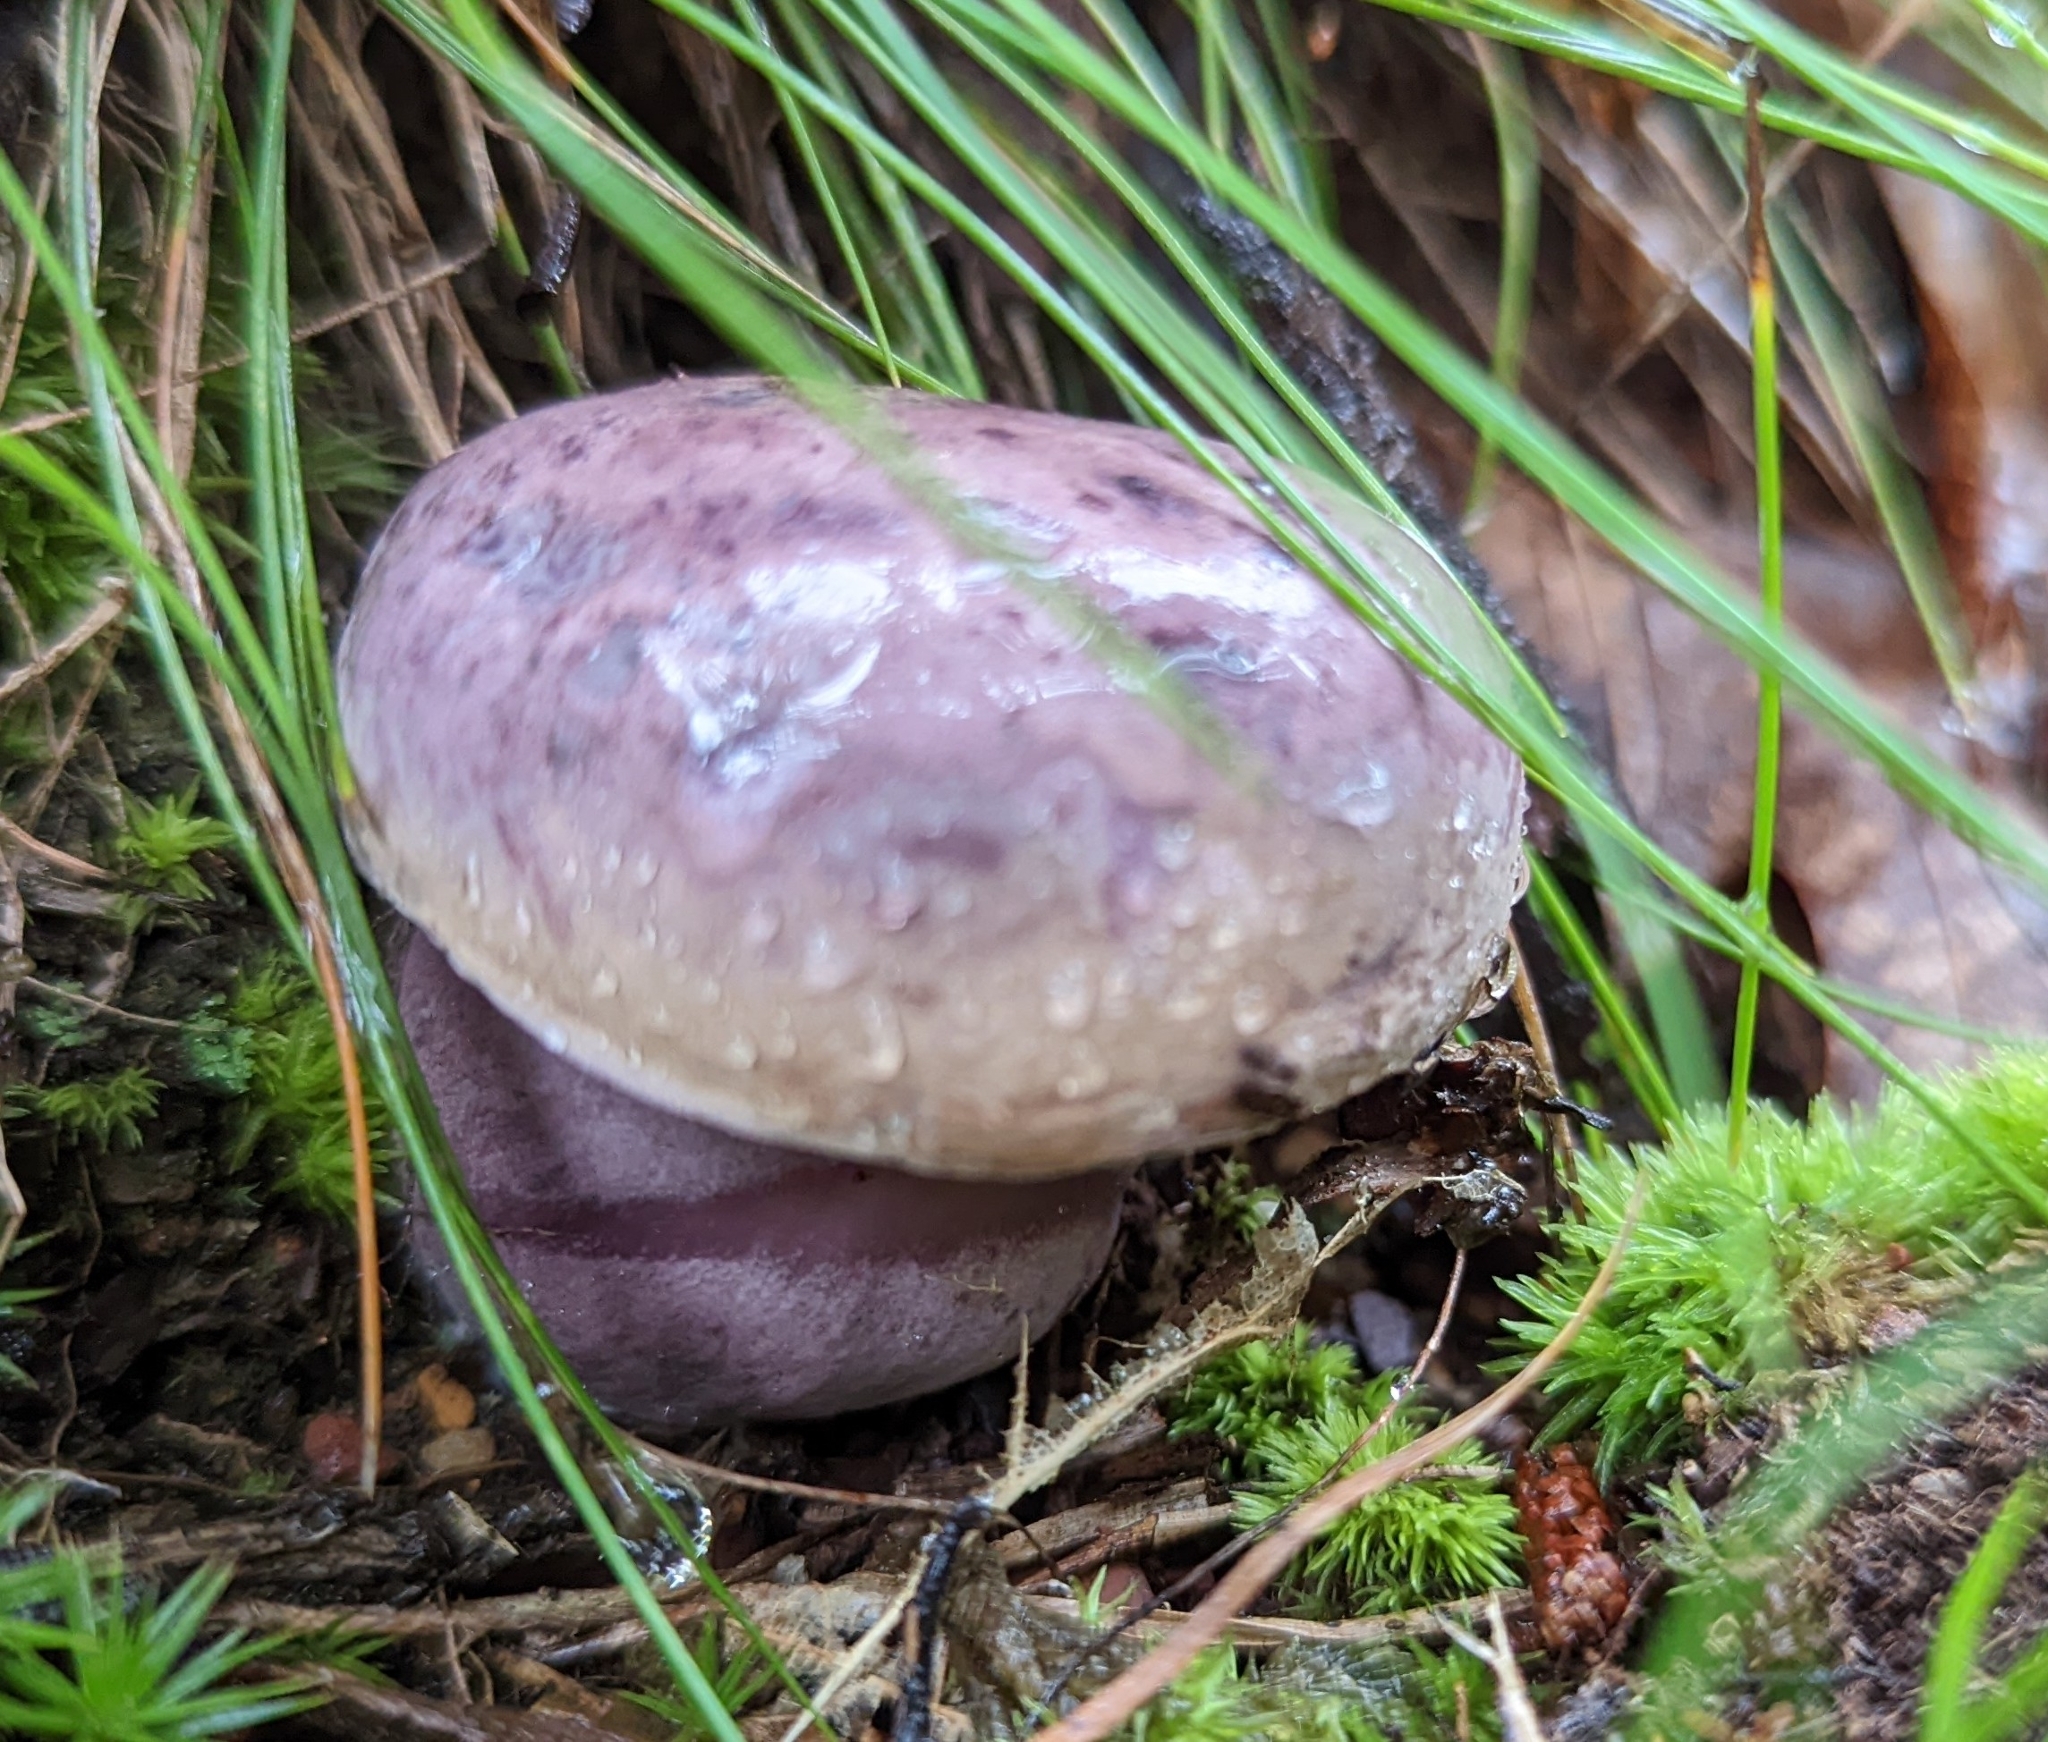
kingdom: Fungi
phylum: Basidiomycota
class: Agaricomycetes
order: Boletales
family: Boletaceae
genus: Tylopilus
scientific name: Tylopilus plumbeoviolaceus
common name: Violet gray bolete
